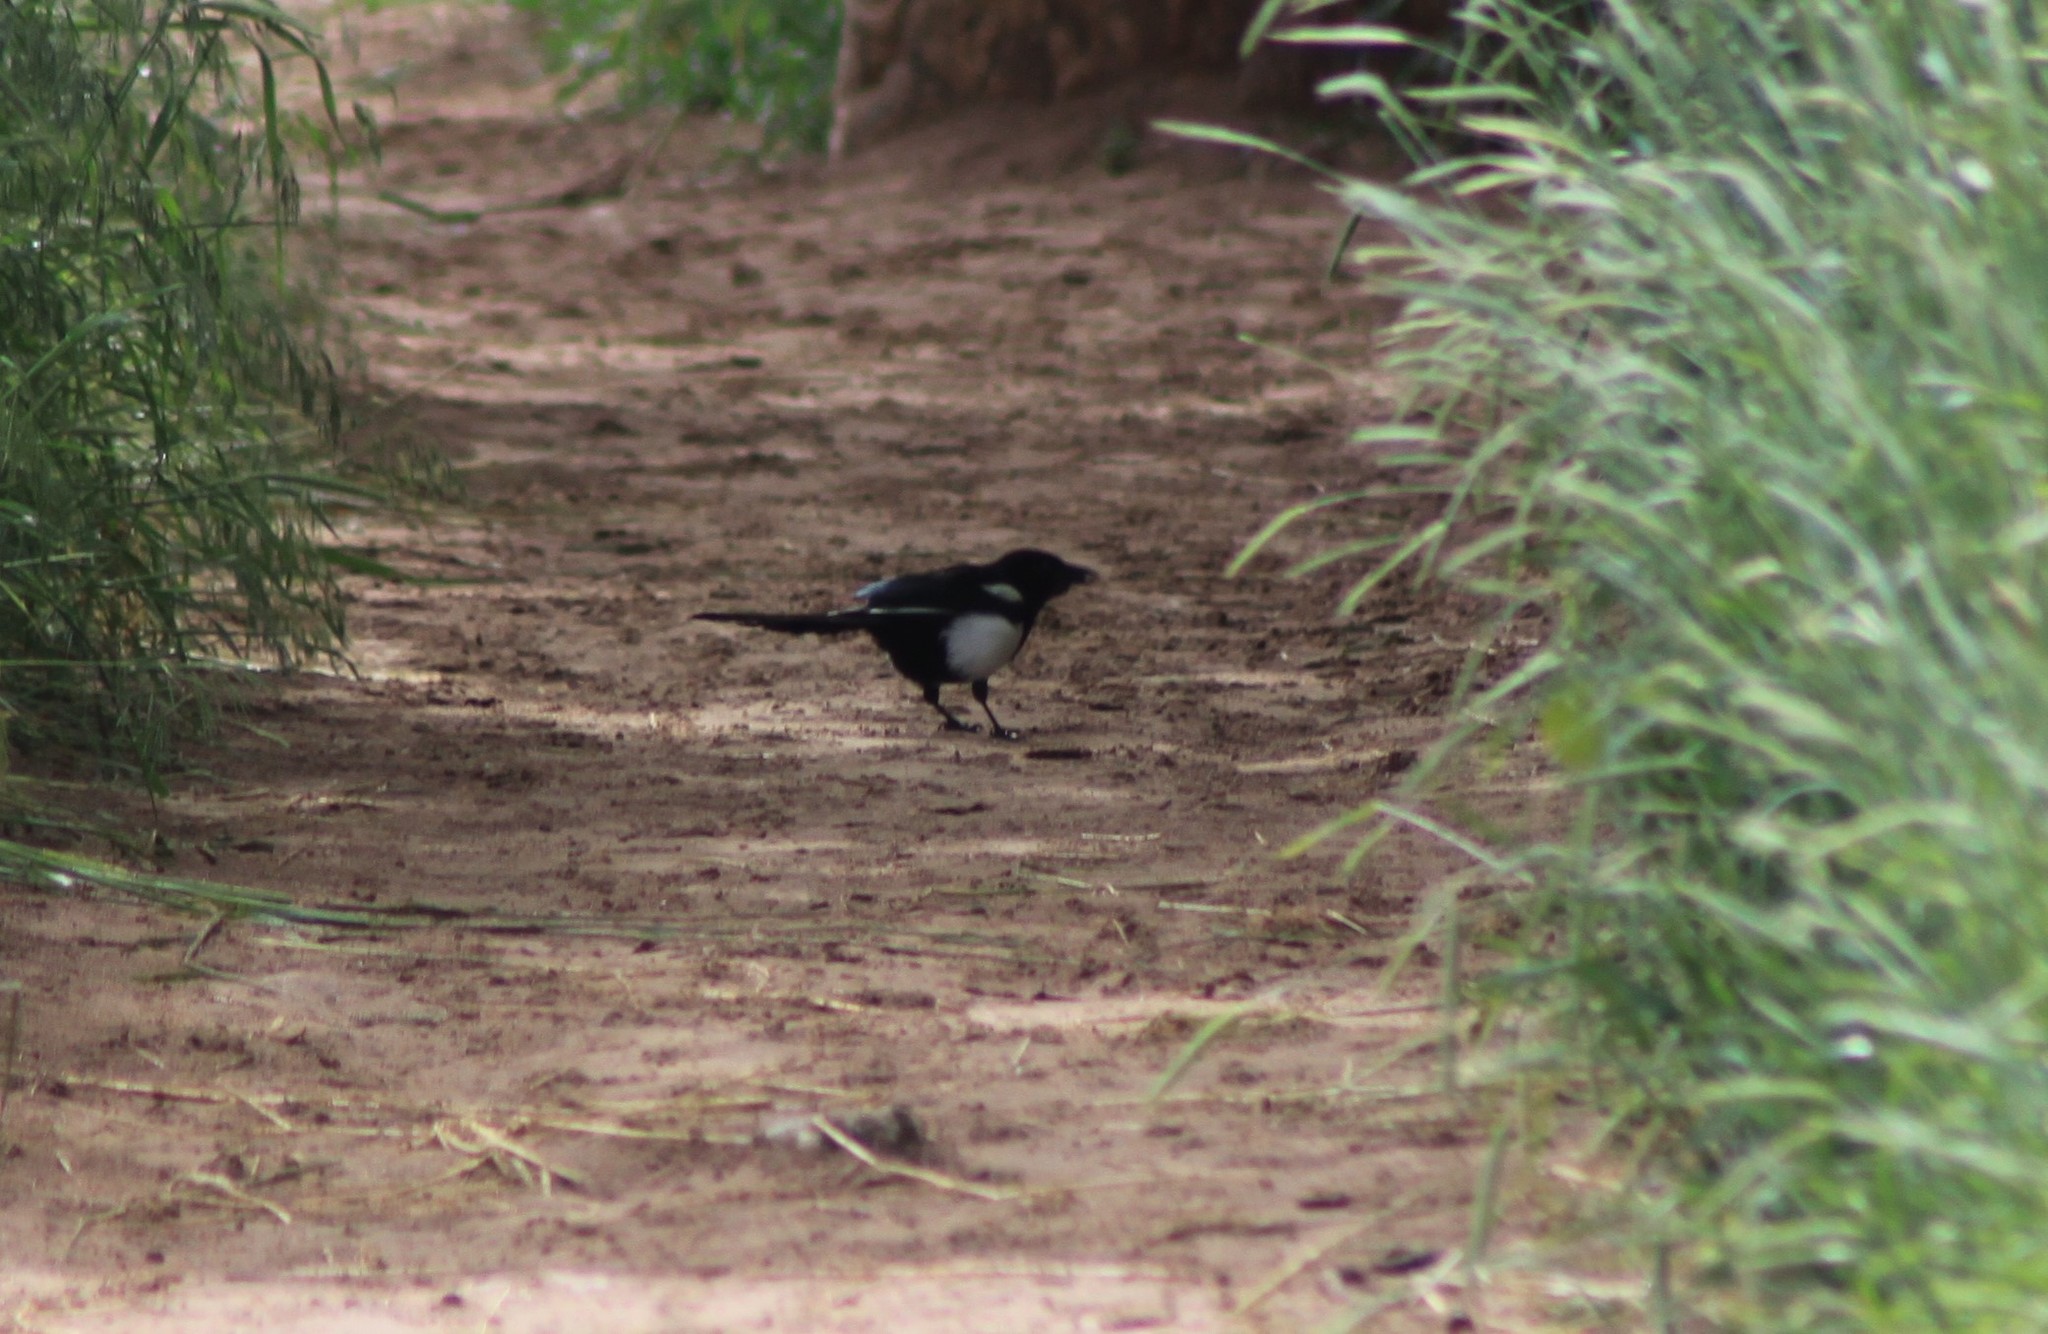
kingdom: Animalia
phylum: Chordata
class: Aves
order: Passeriformes
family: Corvidae
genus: Pica
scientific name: Pica hudsonia
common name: Black-billed magpie
